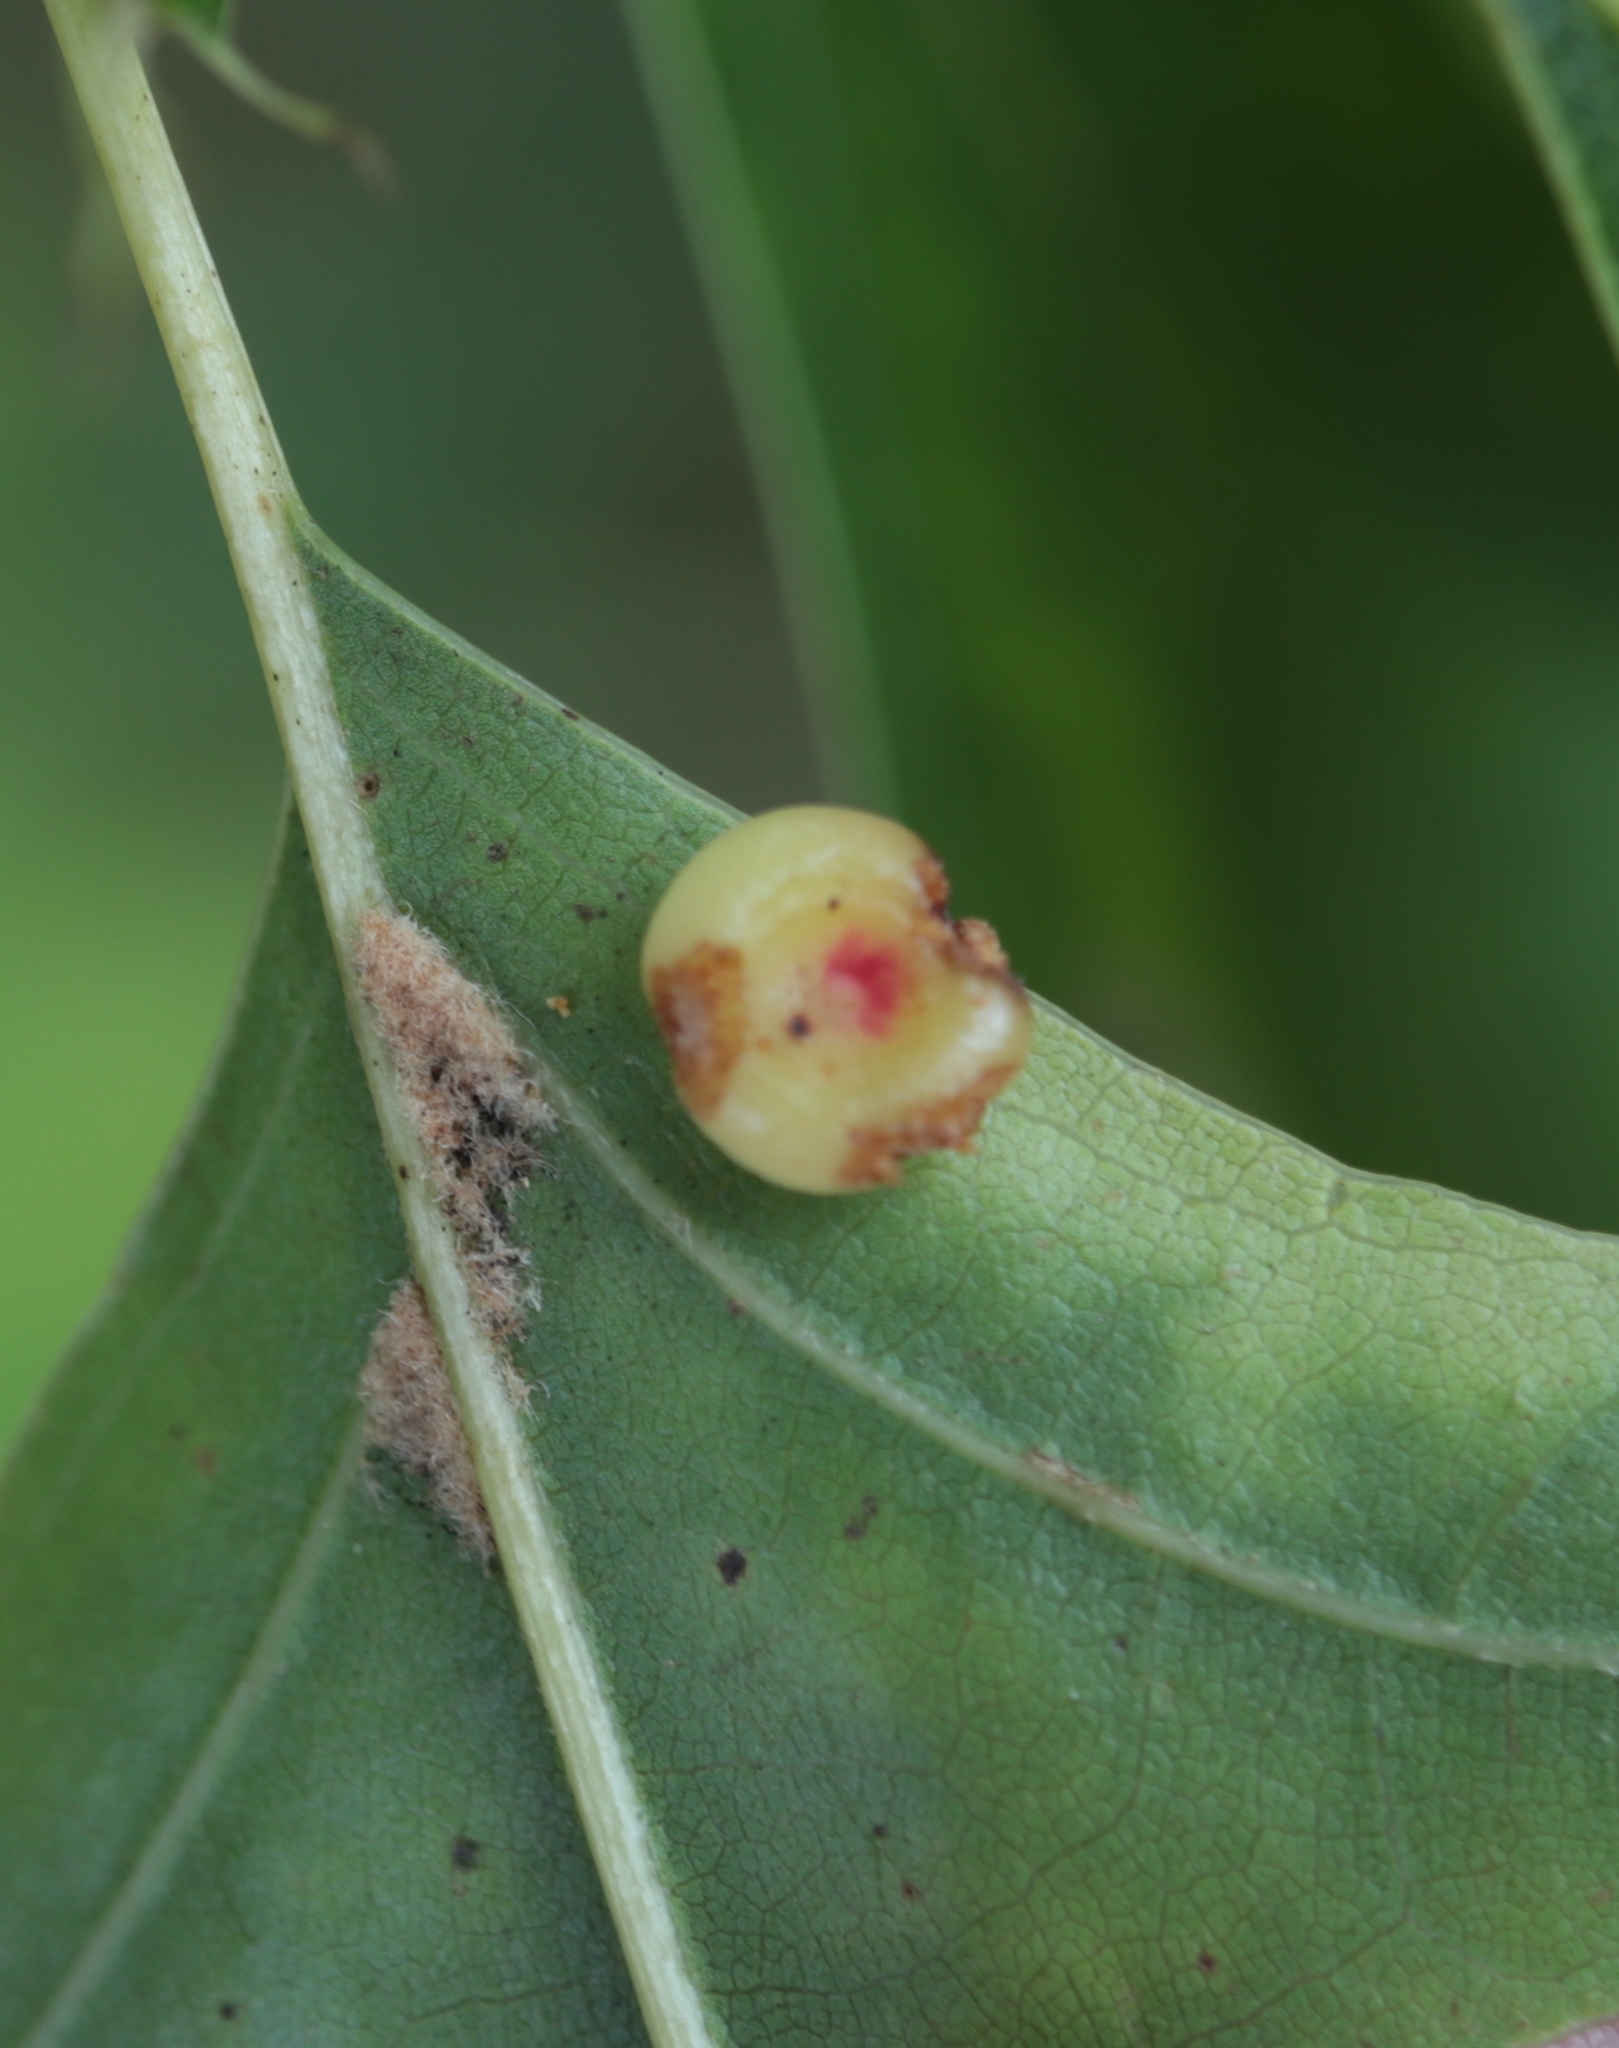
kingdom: Animalia
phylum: Arthropoda
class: Insecta
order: Hymenoptera
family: Cynipidae
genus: Dryocosmus
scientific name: Dryocosmus
